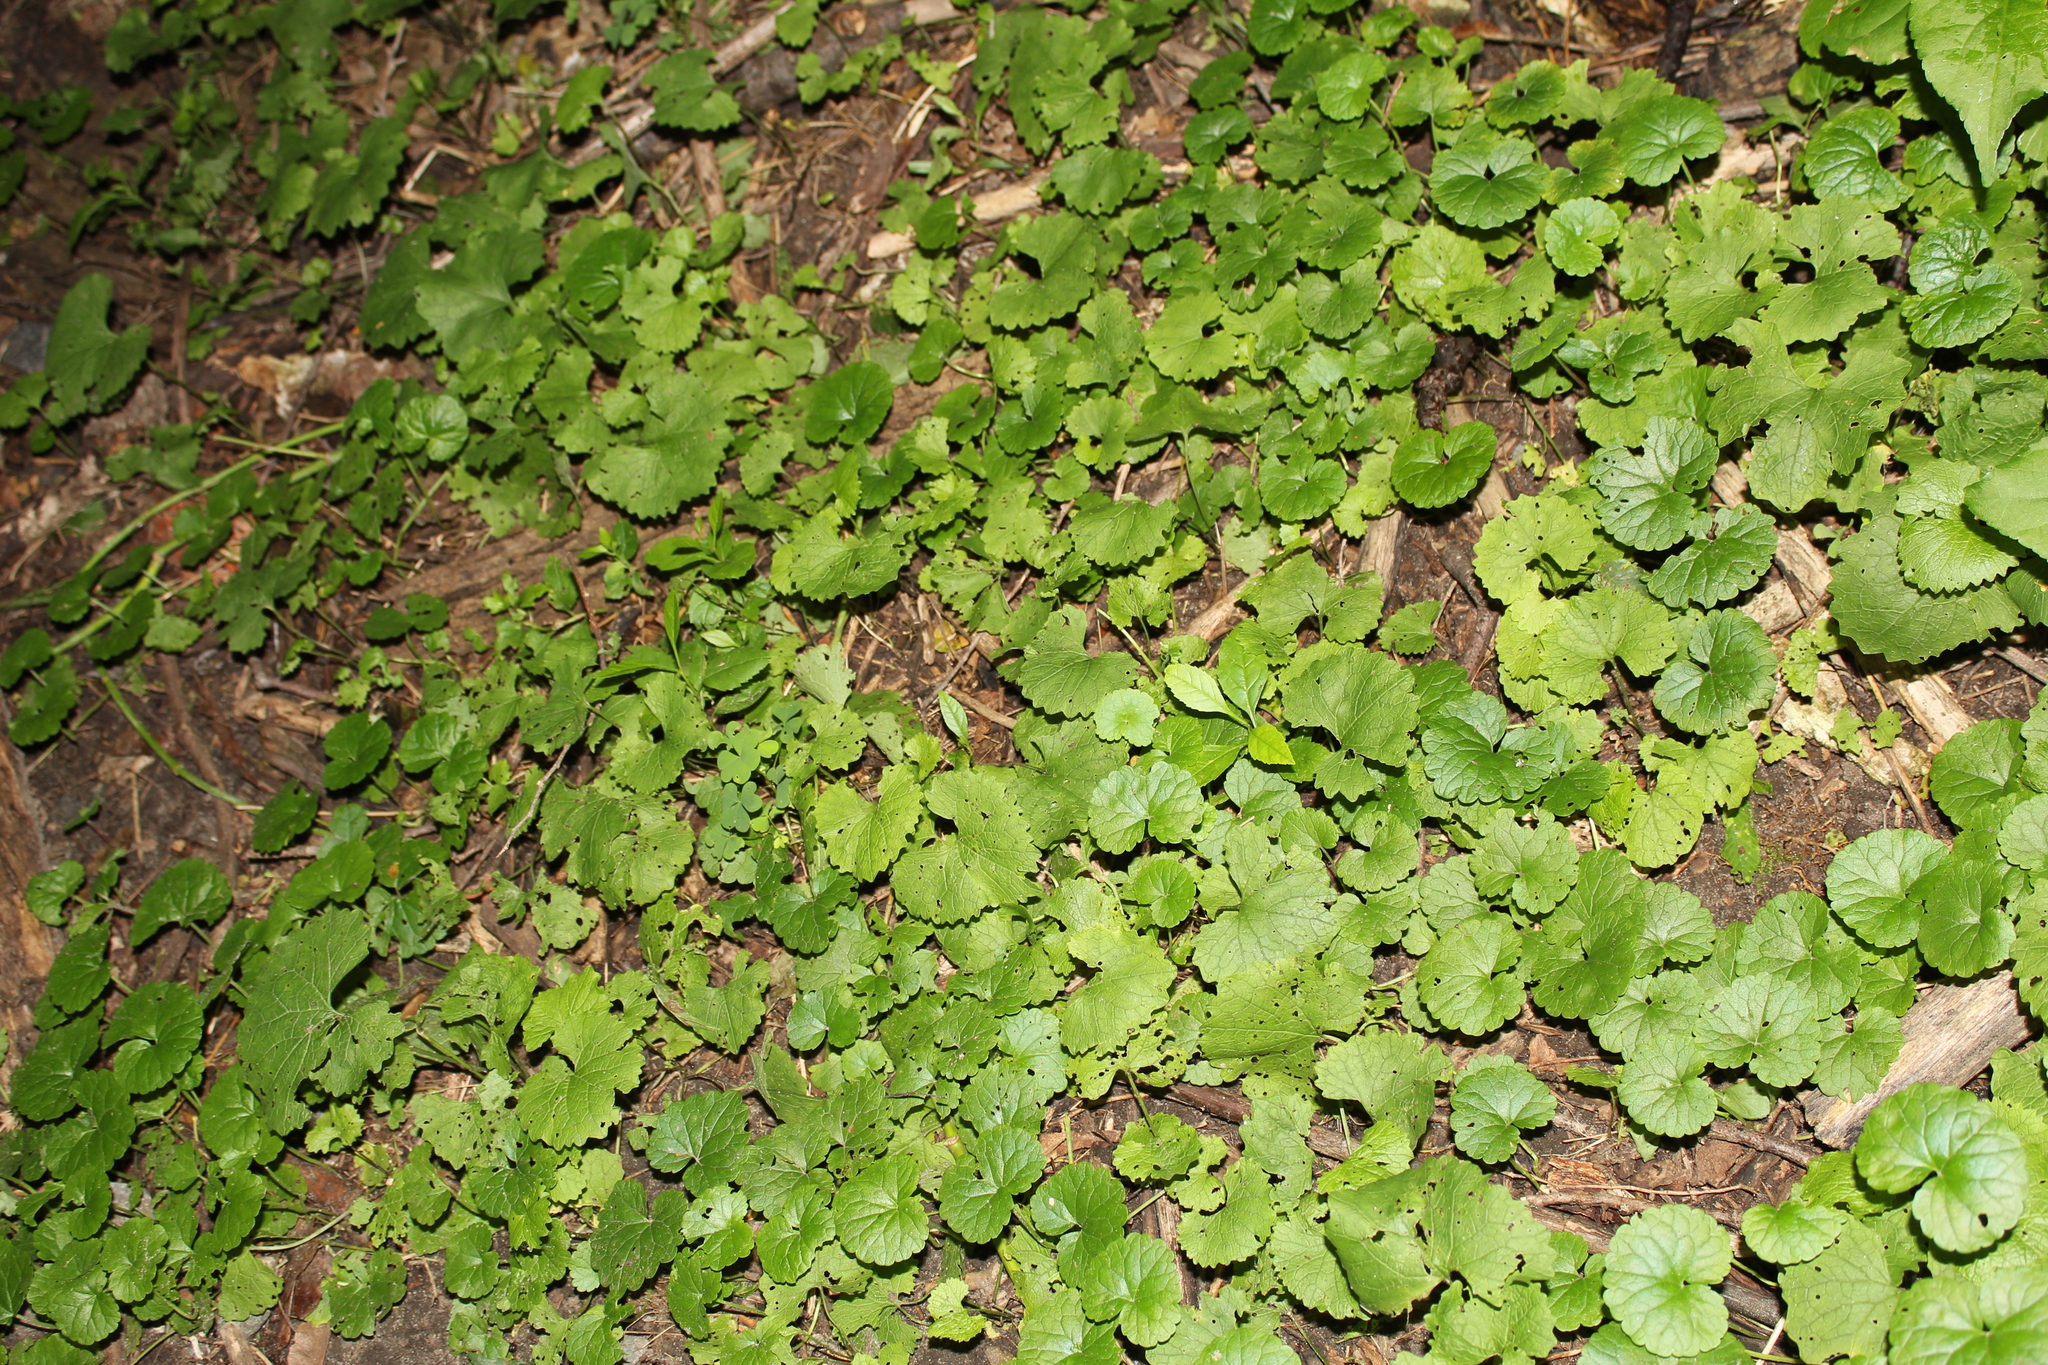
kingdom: Plantae
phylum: Tracheophyta
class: Magnoliopsida
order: Brassicales
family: Brassicaceae
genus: Alliaria
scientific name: Alliaria petiolata
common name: Garlic mustard
